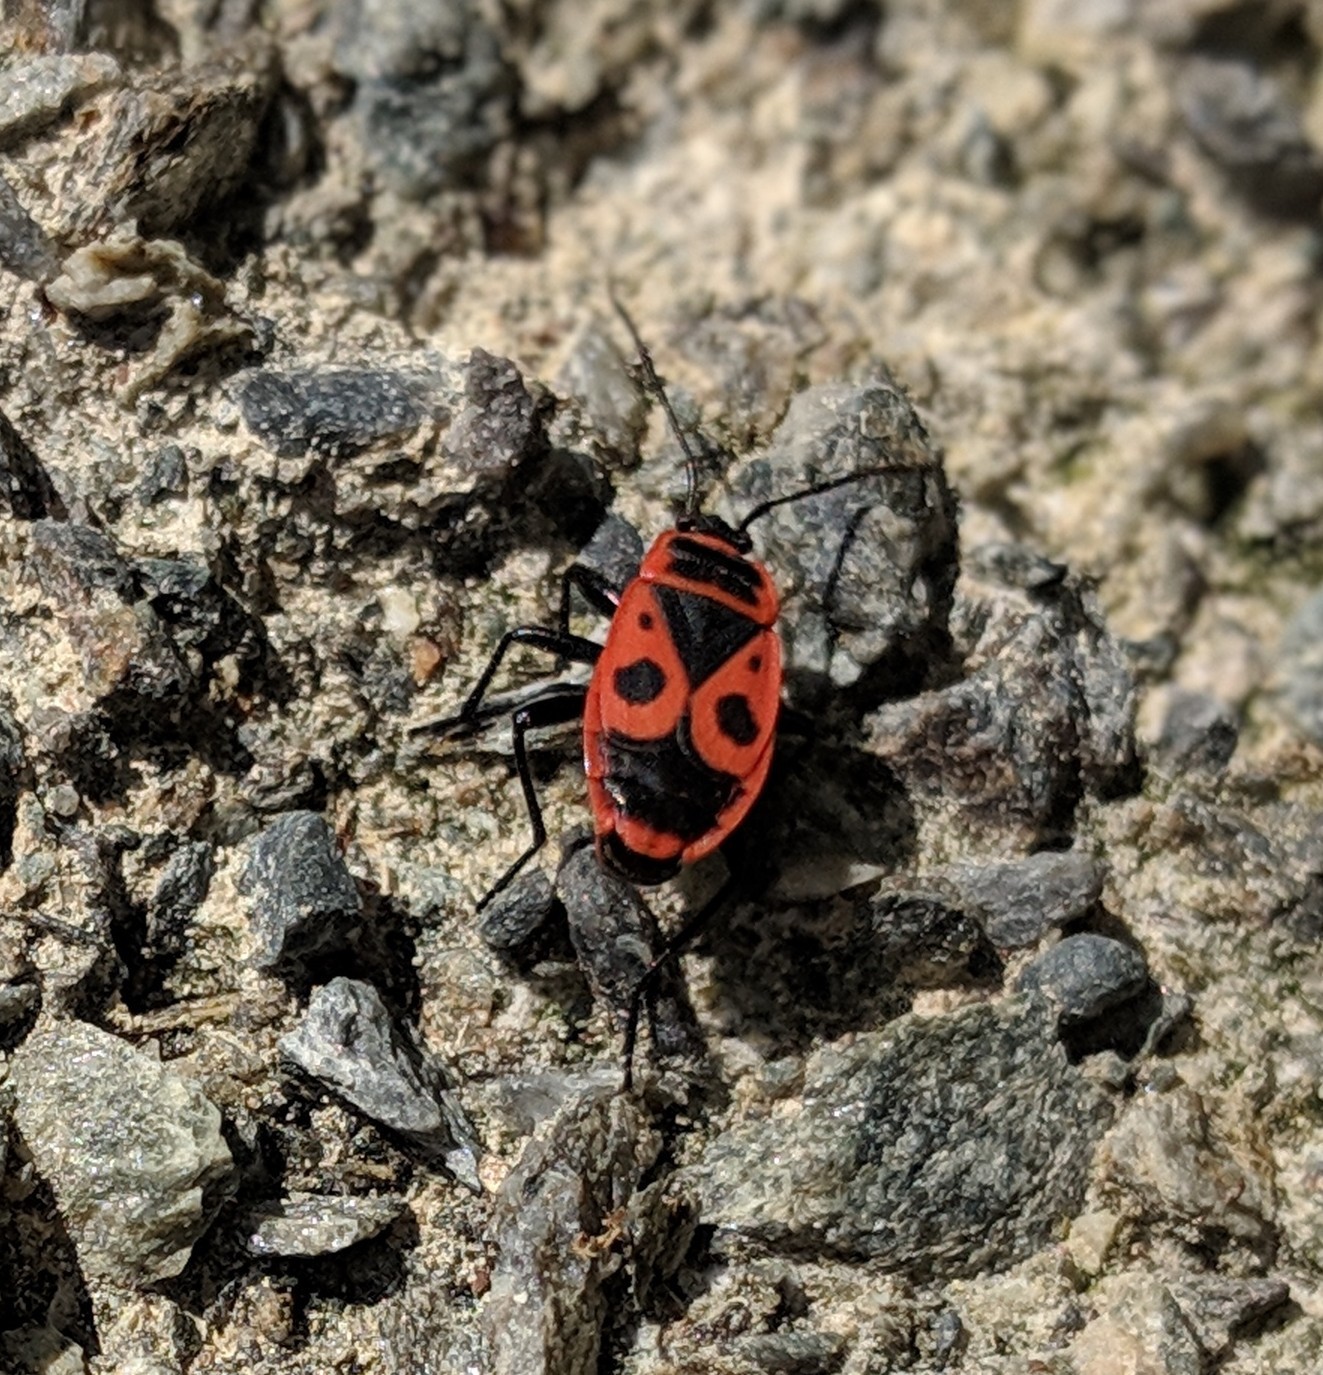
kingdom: Animalia
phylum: Arthropoda
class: Insecta
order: Hemiptera
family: Pyrrhocoridae
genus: Pyrrhocoris
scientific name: Pyrrhocoris apterus
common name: Firebug
